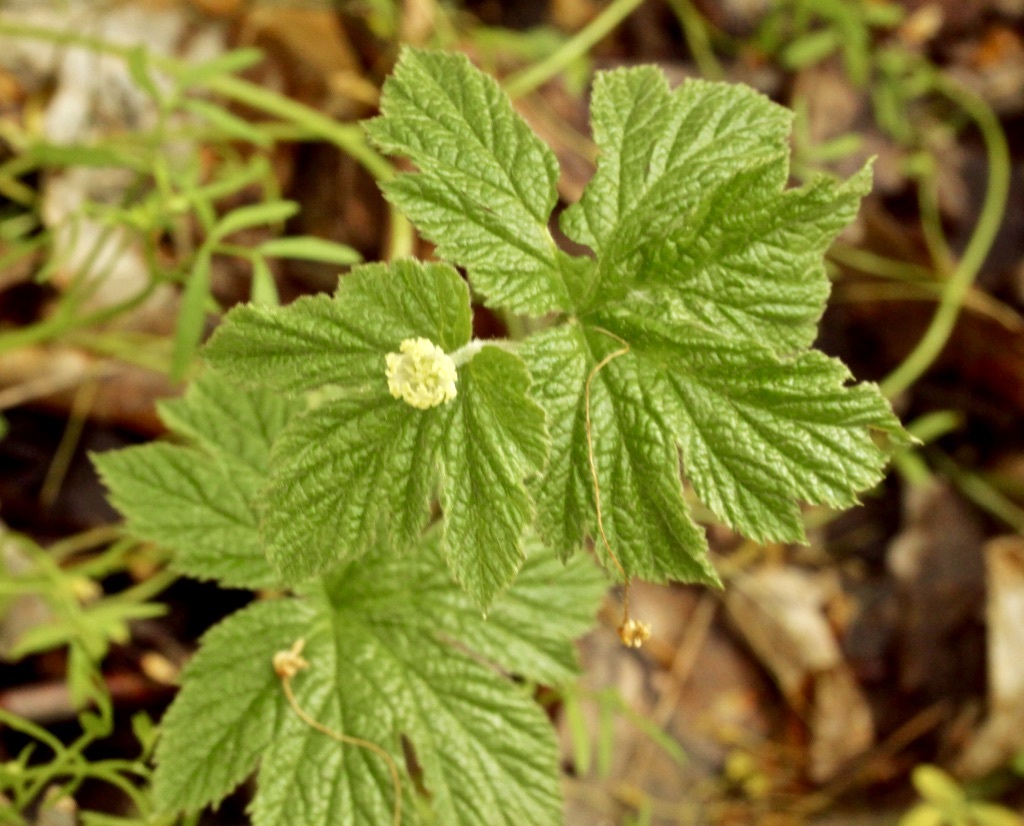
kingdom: Plantae
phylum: Tracheophyta
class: Magnoliopsida
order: Ranunculales
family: Ranunculaceae
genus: Hydrastis
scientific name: Hydrastis canadensis
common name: Goldenseal
